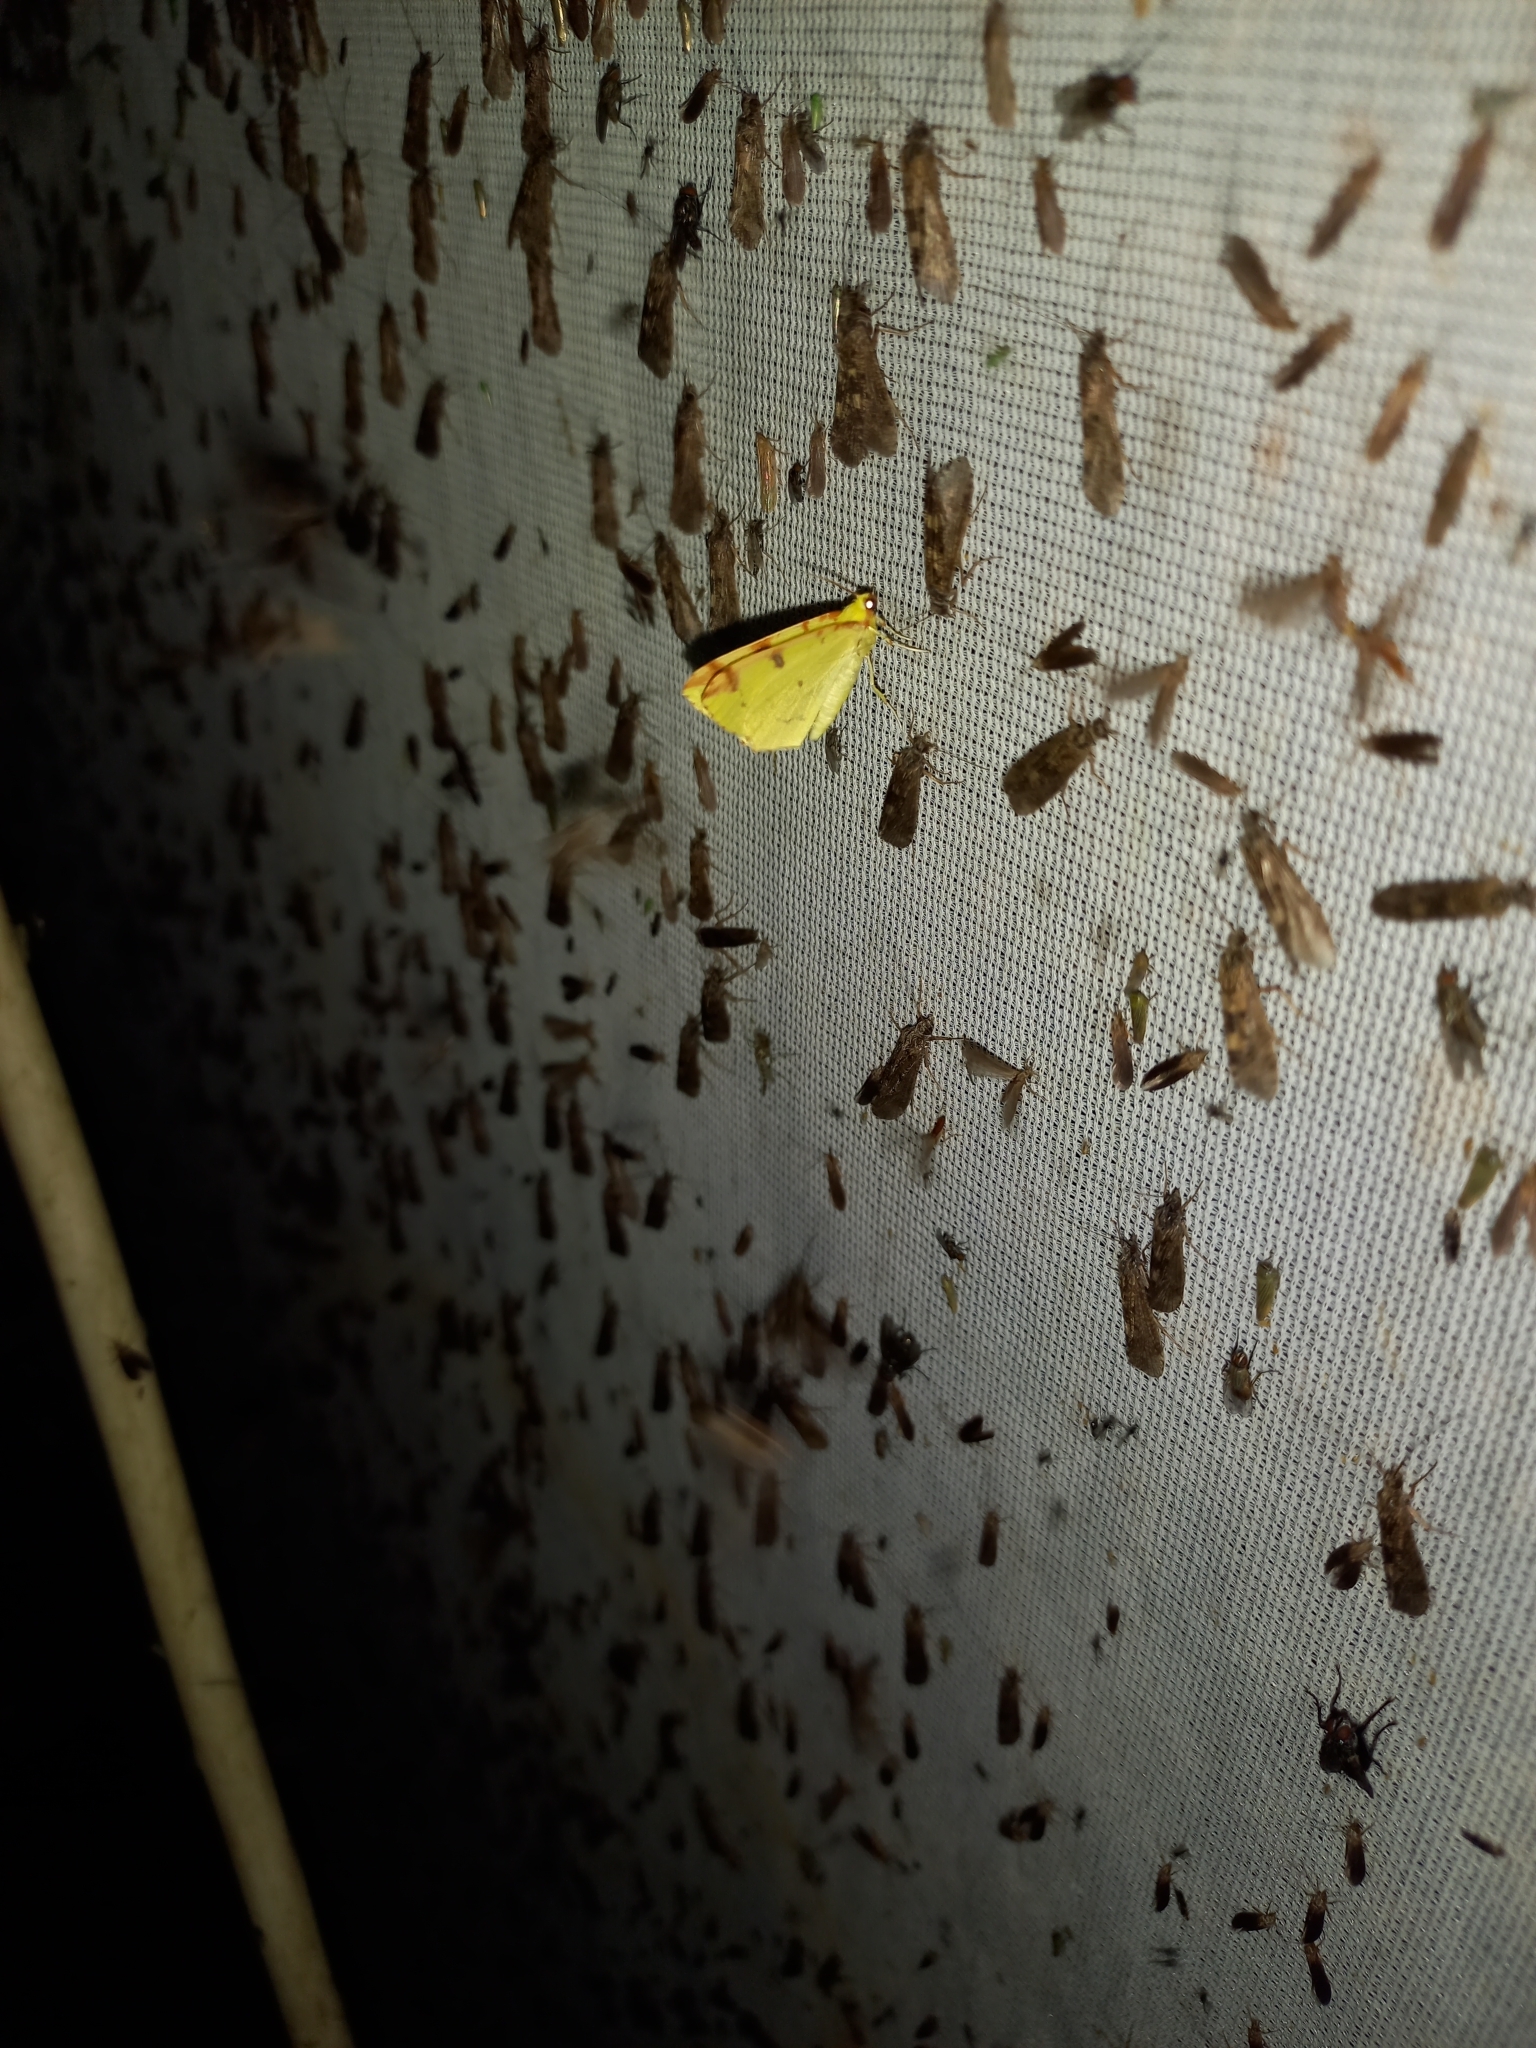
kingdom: Animalia
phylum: Arthropoda
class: Insecta
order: Lepidoptera
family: Geometridae
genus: Opisthograptis
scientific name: Opisthograptis luteolata
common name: Brimstone moth
